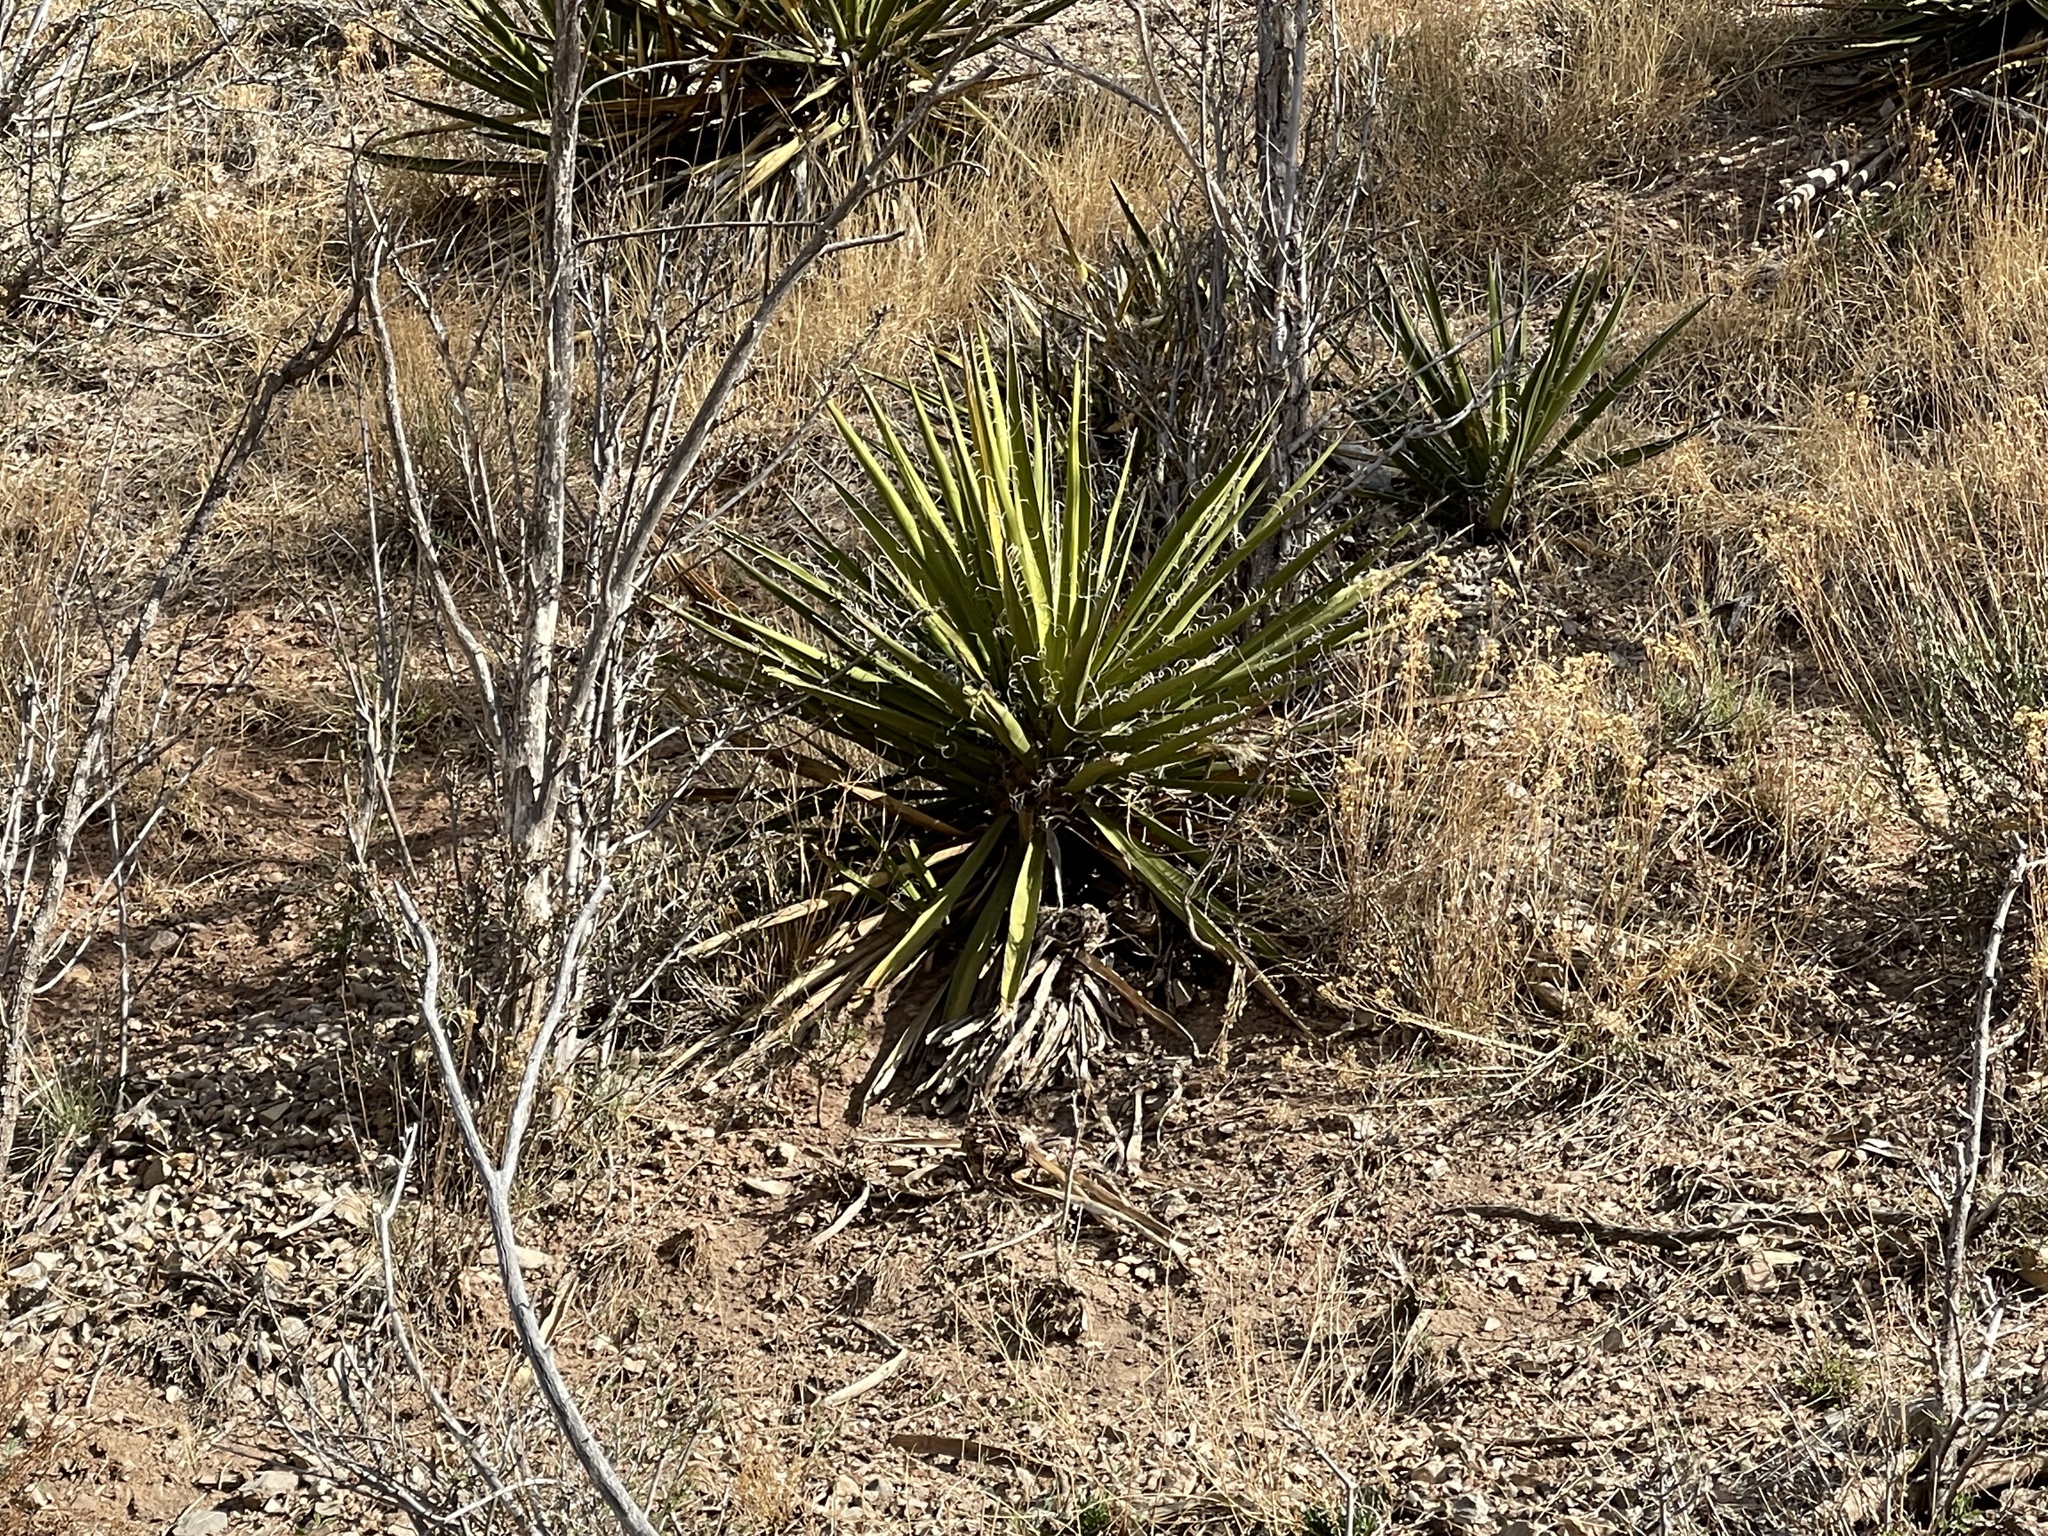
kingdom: Plantae
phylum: Tracheophyta
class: Liliopsida
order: Asparagales
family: Asparagaceae
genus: Yucca
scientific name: Yucca baccata
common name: Banana yucca
